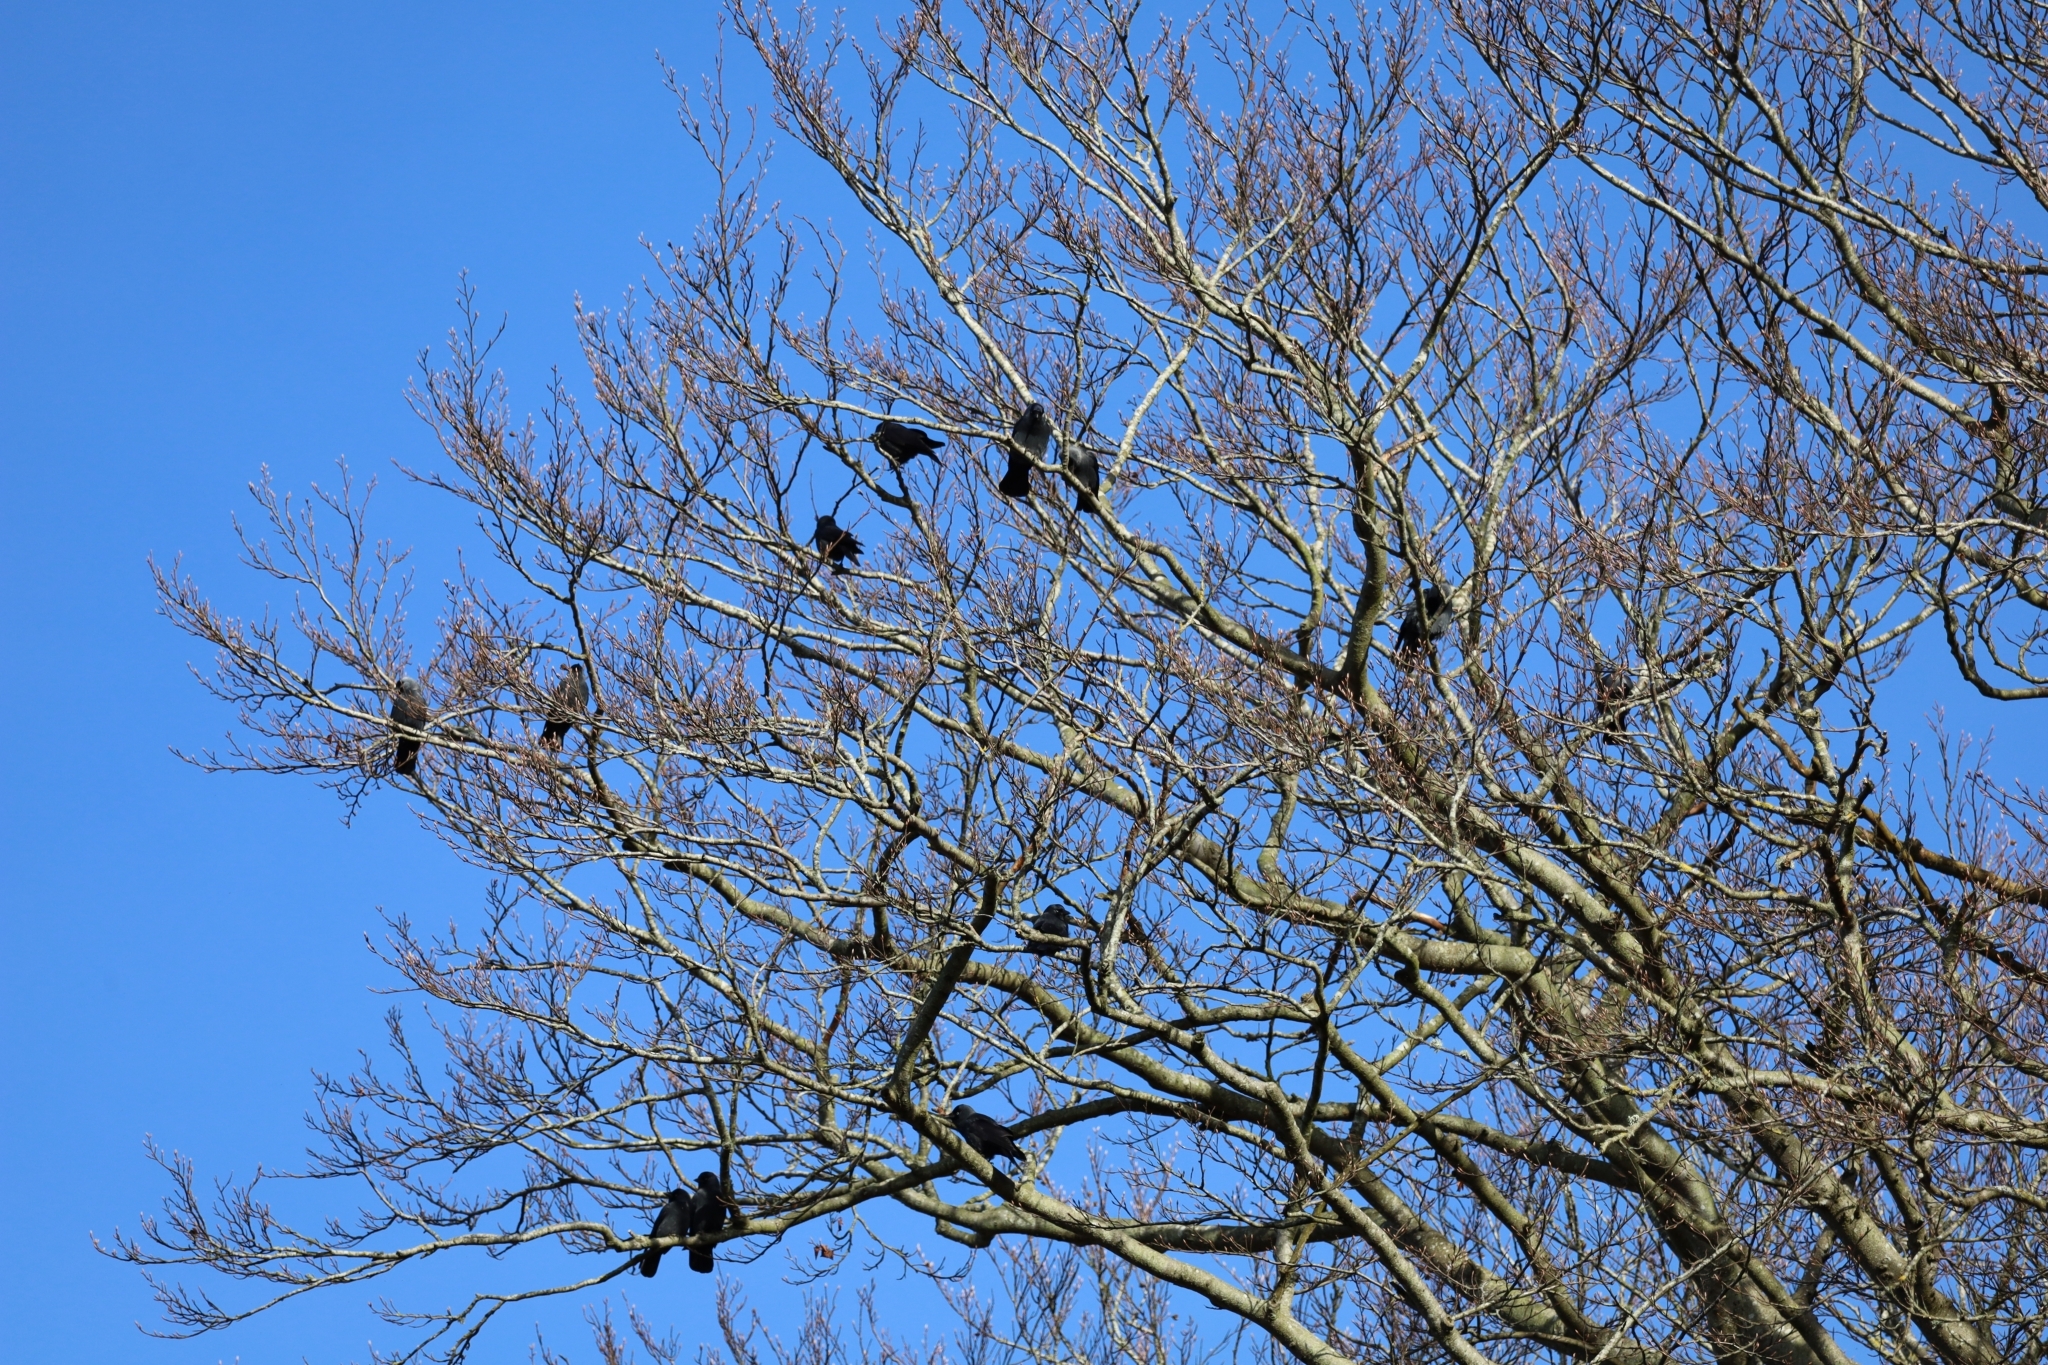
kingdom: Animalia
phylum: Chordata
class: Aves
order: Passeriformes
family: Corvidae
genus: Coloeus
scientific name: Coloeus monedula
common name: Western jackdaw
